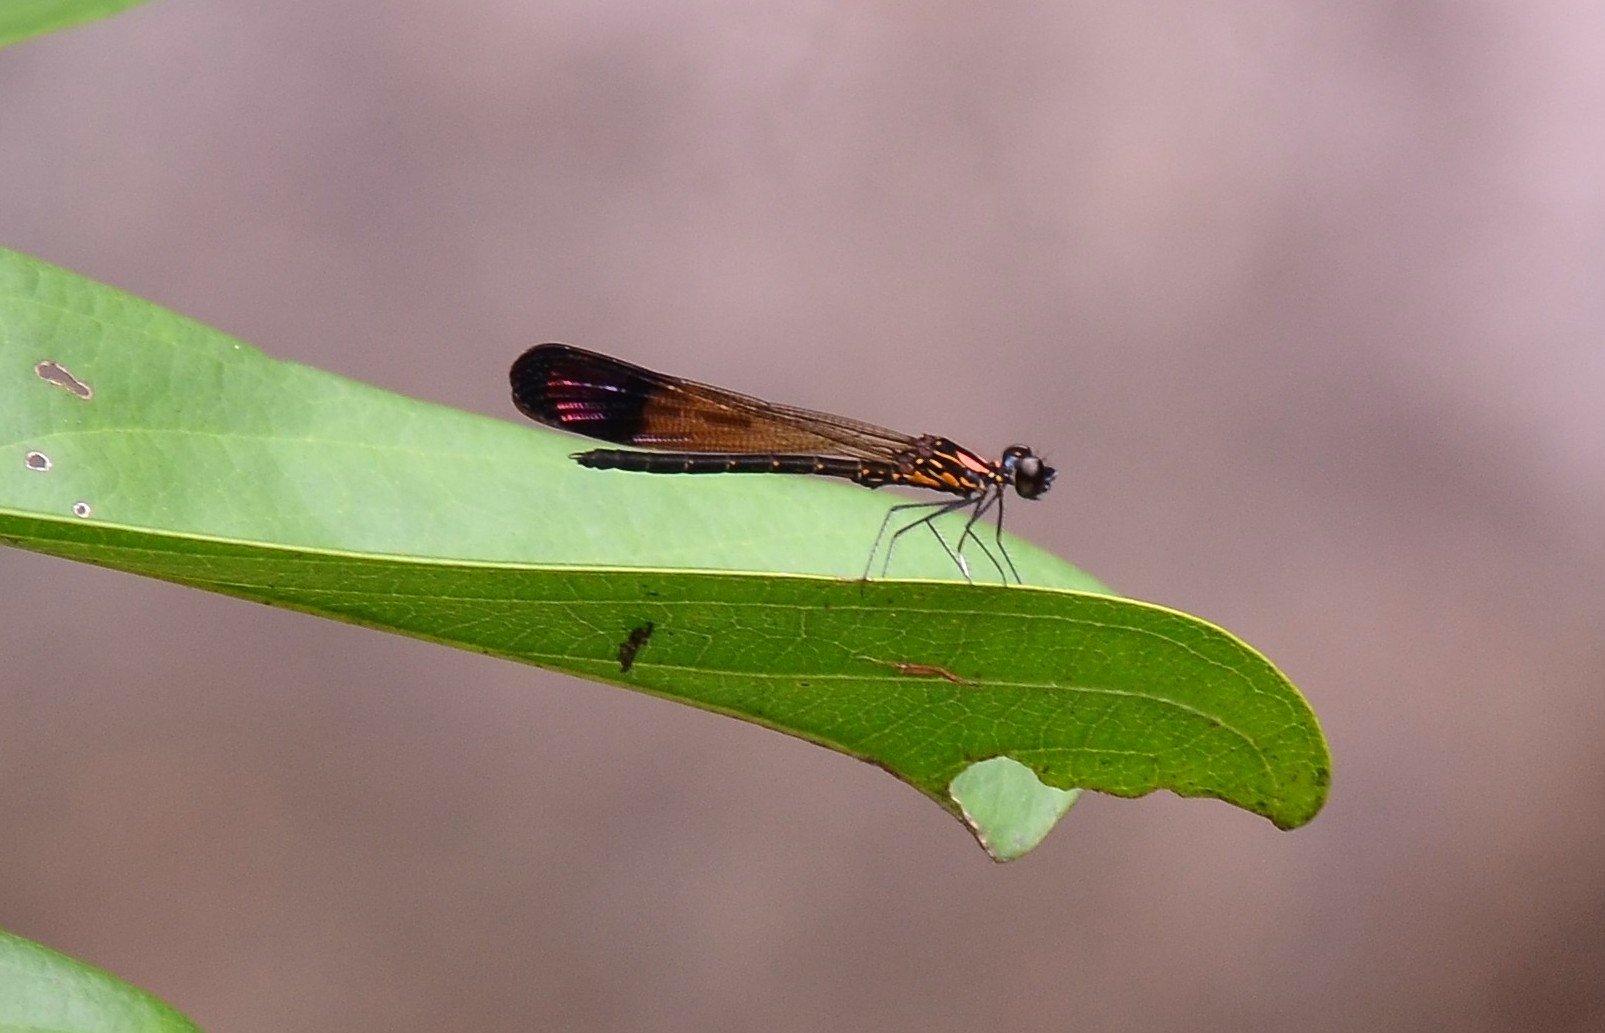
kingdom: Animalia
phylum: Arthropoda
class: Insecta
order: Odonata
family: Chlorocyphidae
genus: Heliocypha
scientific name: Heliocypha bisignata
